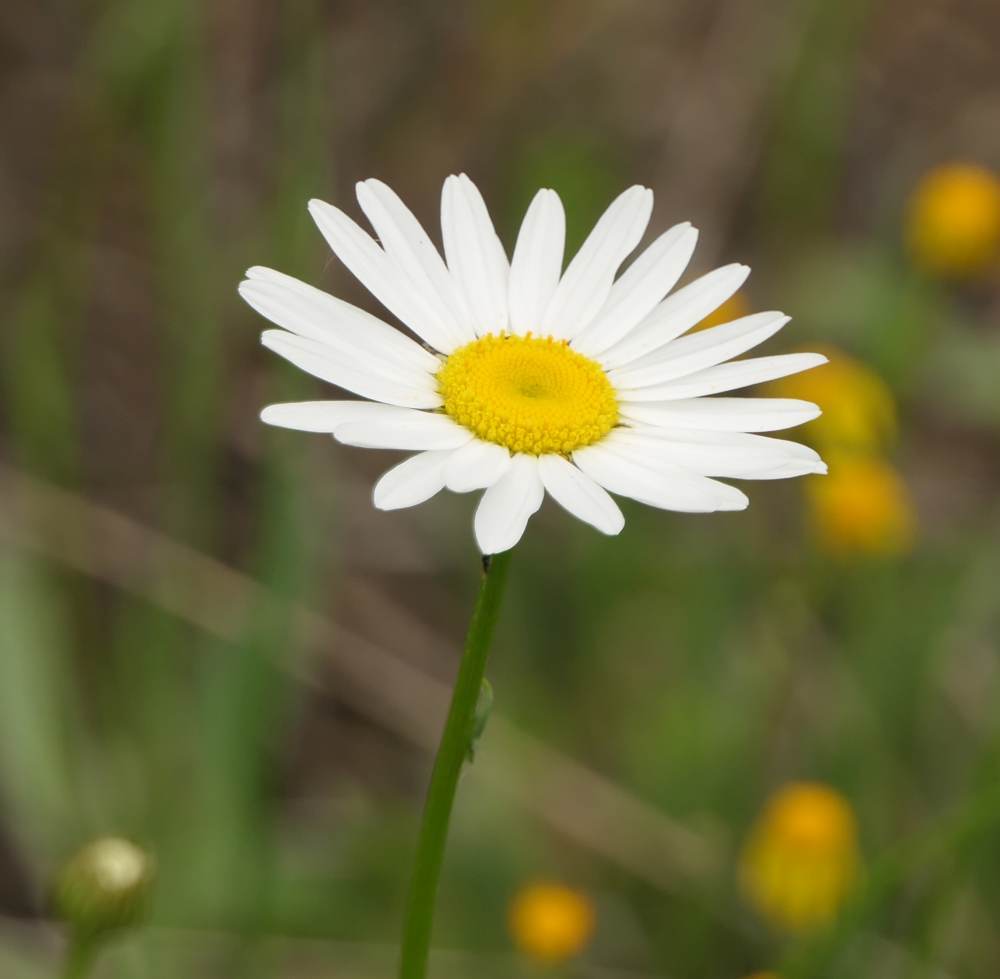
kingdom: Plantae
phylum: Tracheophyta
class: Magnoliopsida
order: Asterales
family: Asteraceae
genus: Leucanthemum
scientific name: Leucanthemum vulgare
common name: Oxeye daisy
